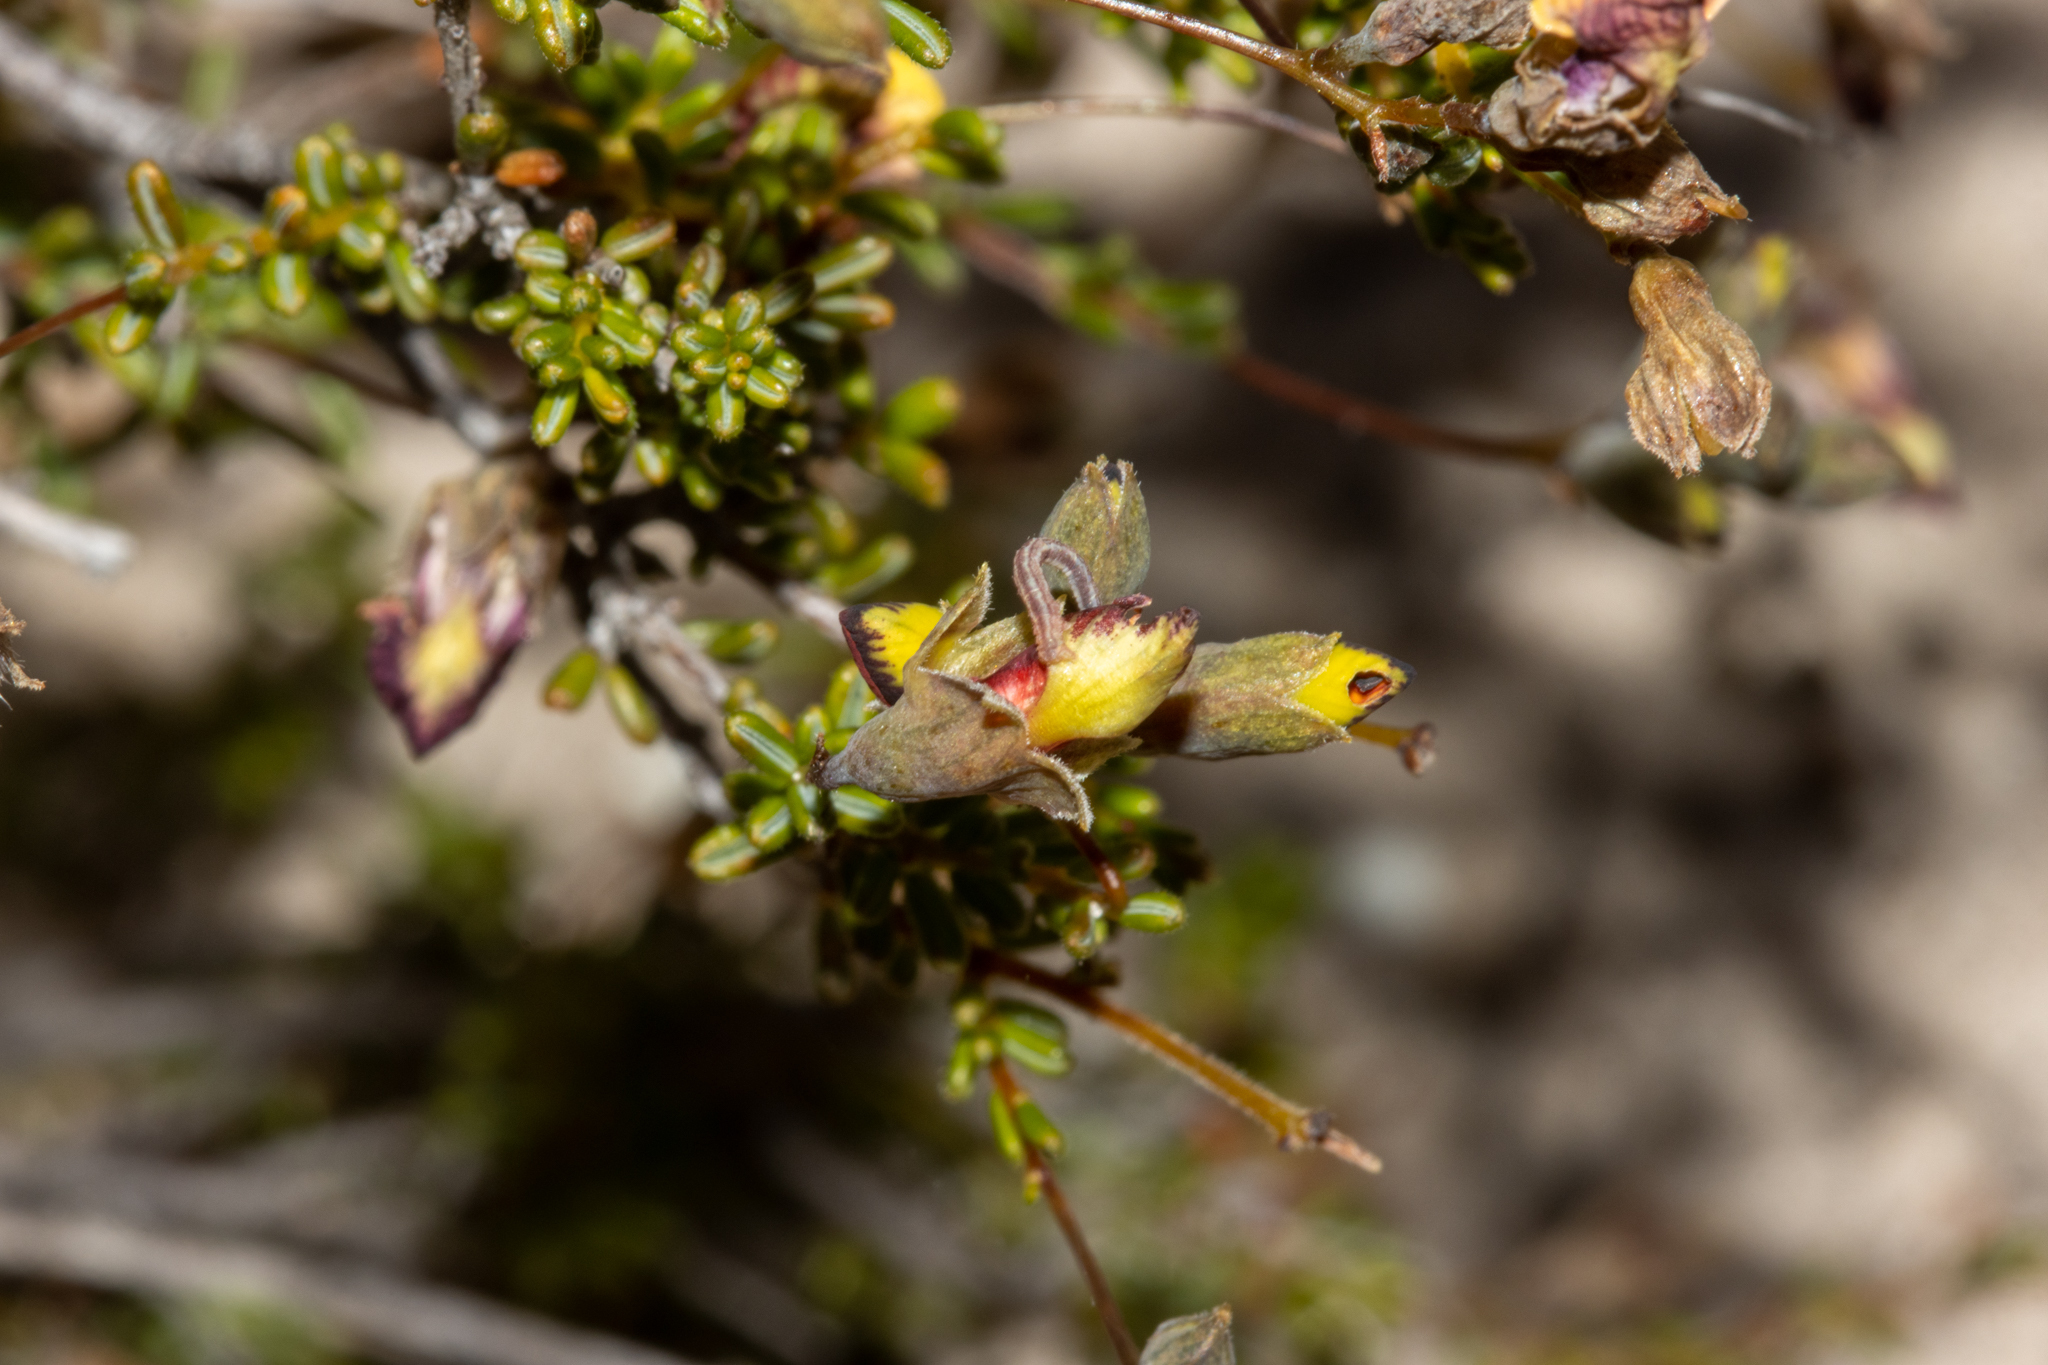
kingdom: Plantae
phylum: Tracheophyta
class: Magnoliopsida
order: Fabales
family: Fabaceae
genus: Dillwynia
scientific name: Dillwynia hispida
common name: Red parrot-pea
